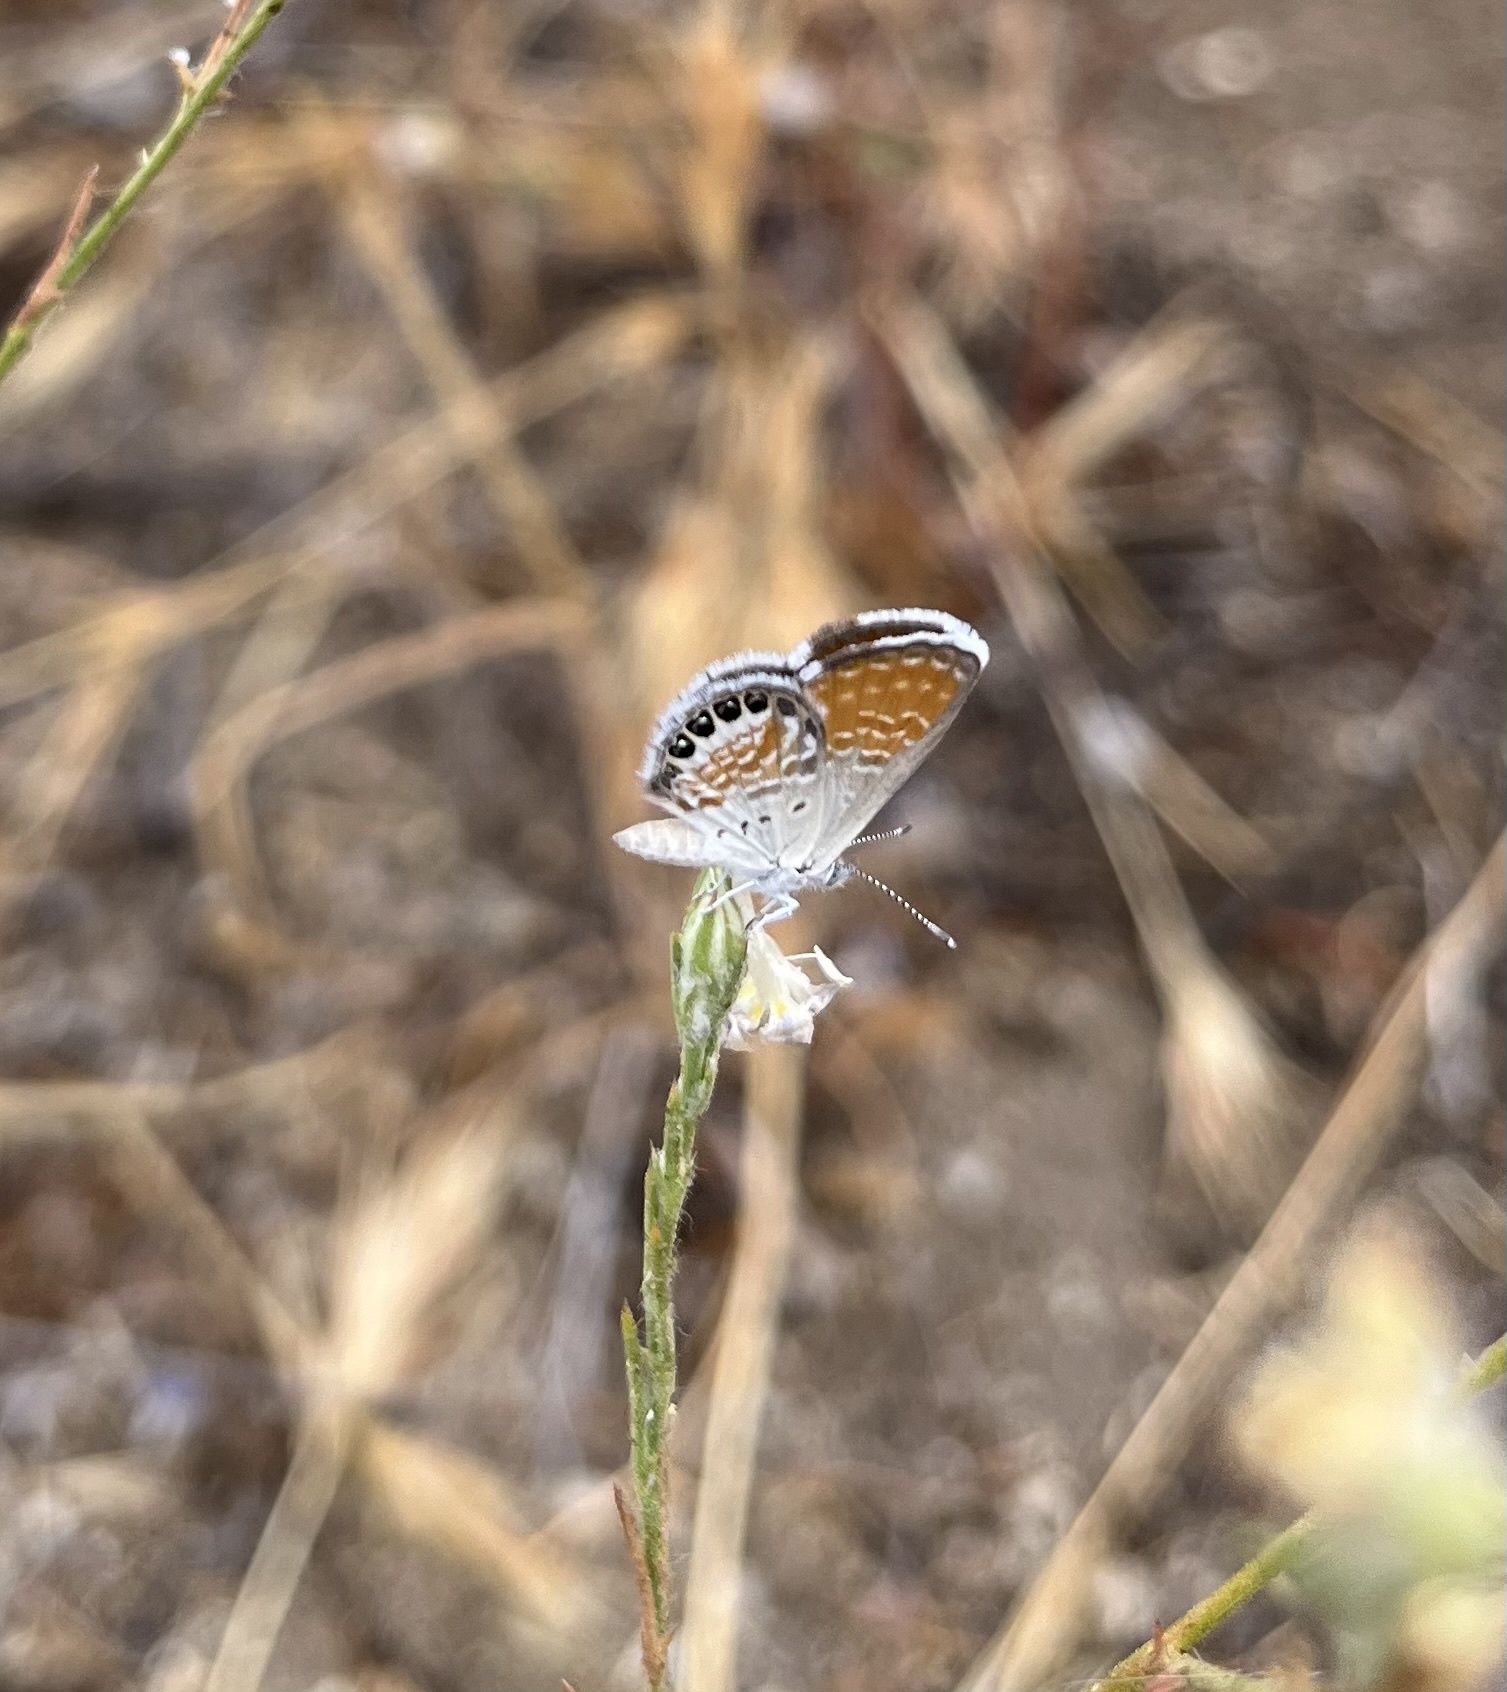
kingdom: Animalia
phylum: Arthropoda
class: Insecta
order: Lepidoptera
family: Lycaenidae
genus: Brephidium
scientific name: Brephidium exilis
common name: Pygmy blue
